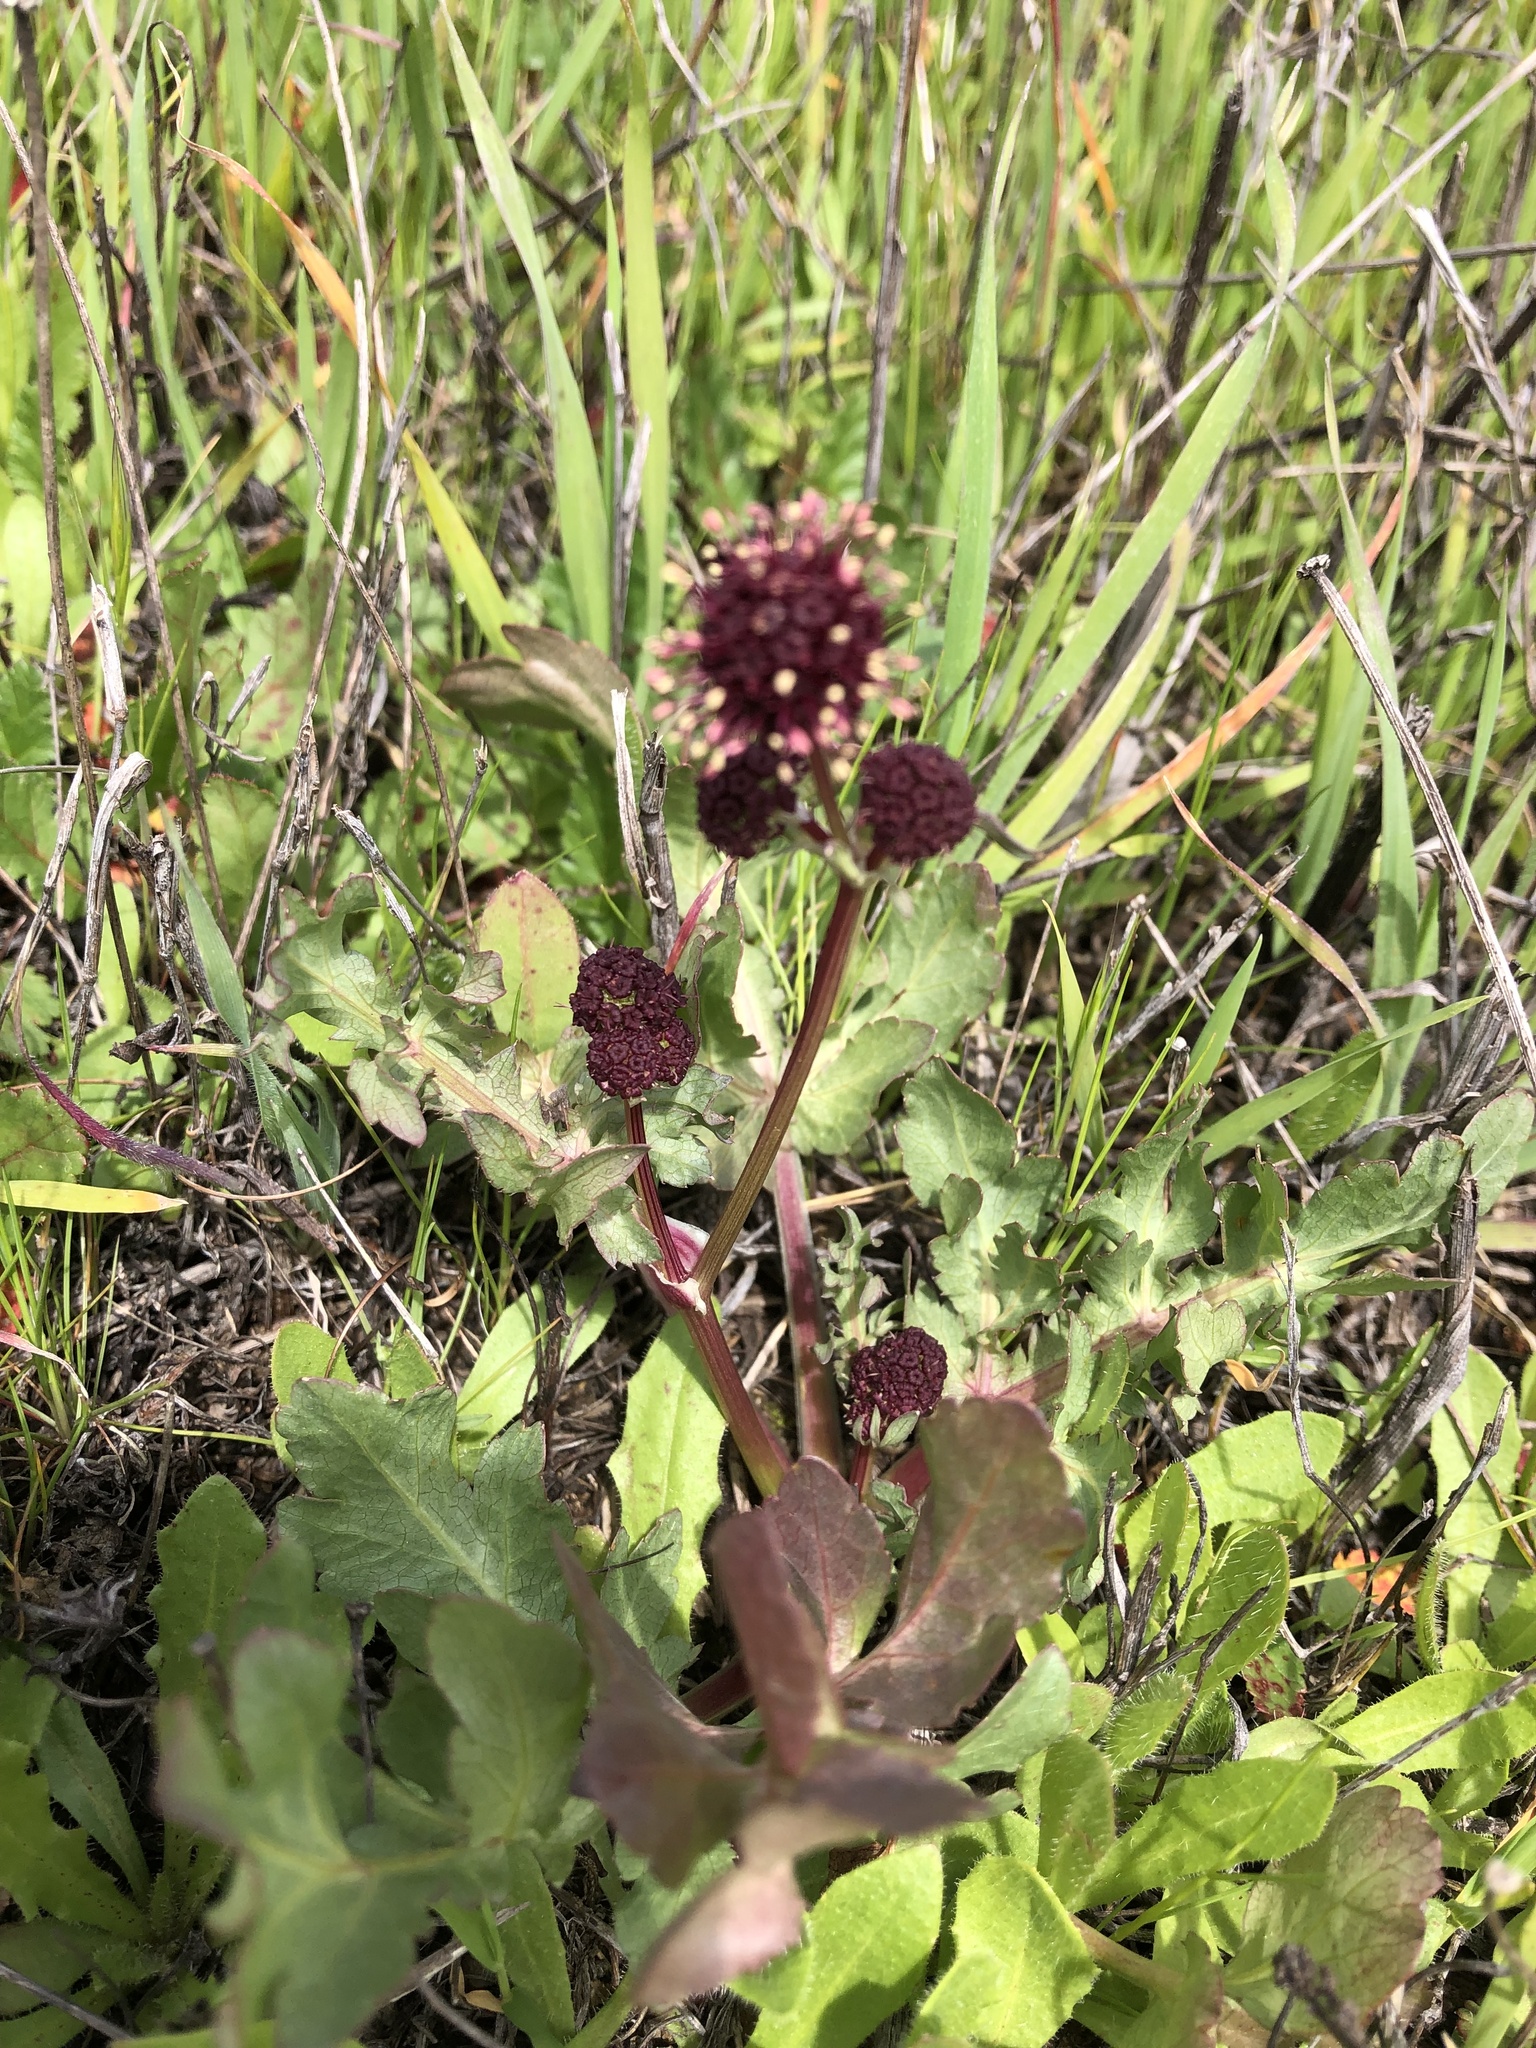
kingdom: Plantae
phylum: Tracheophyta
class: Magnoliopsida
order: Apiales
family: Apiaceae
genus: Sanicula
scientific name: Sanicula bipinnatifida
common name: Shoe-buttons
